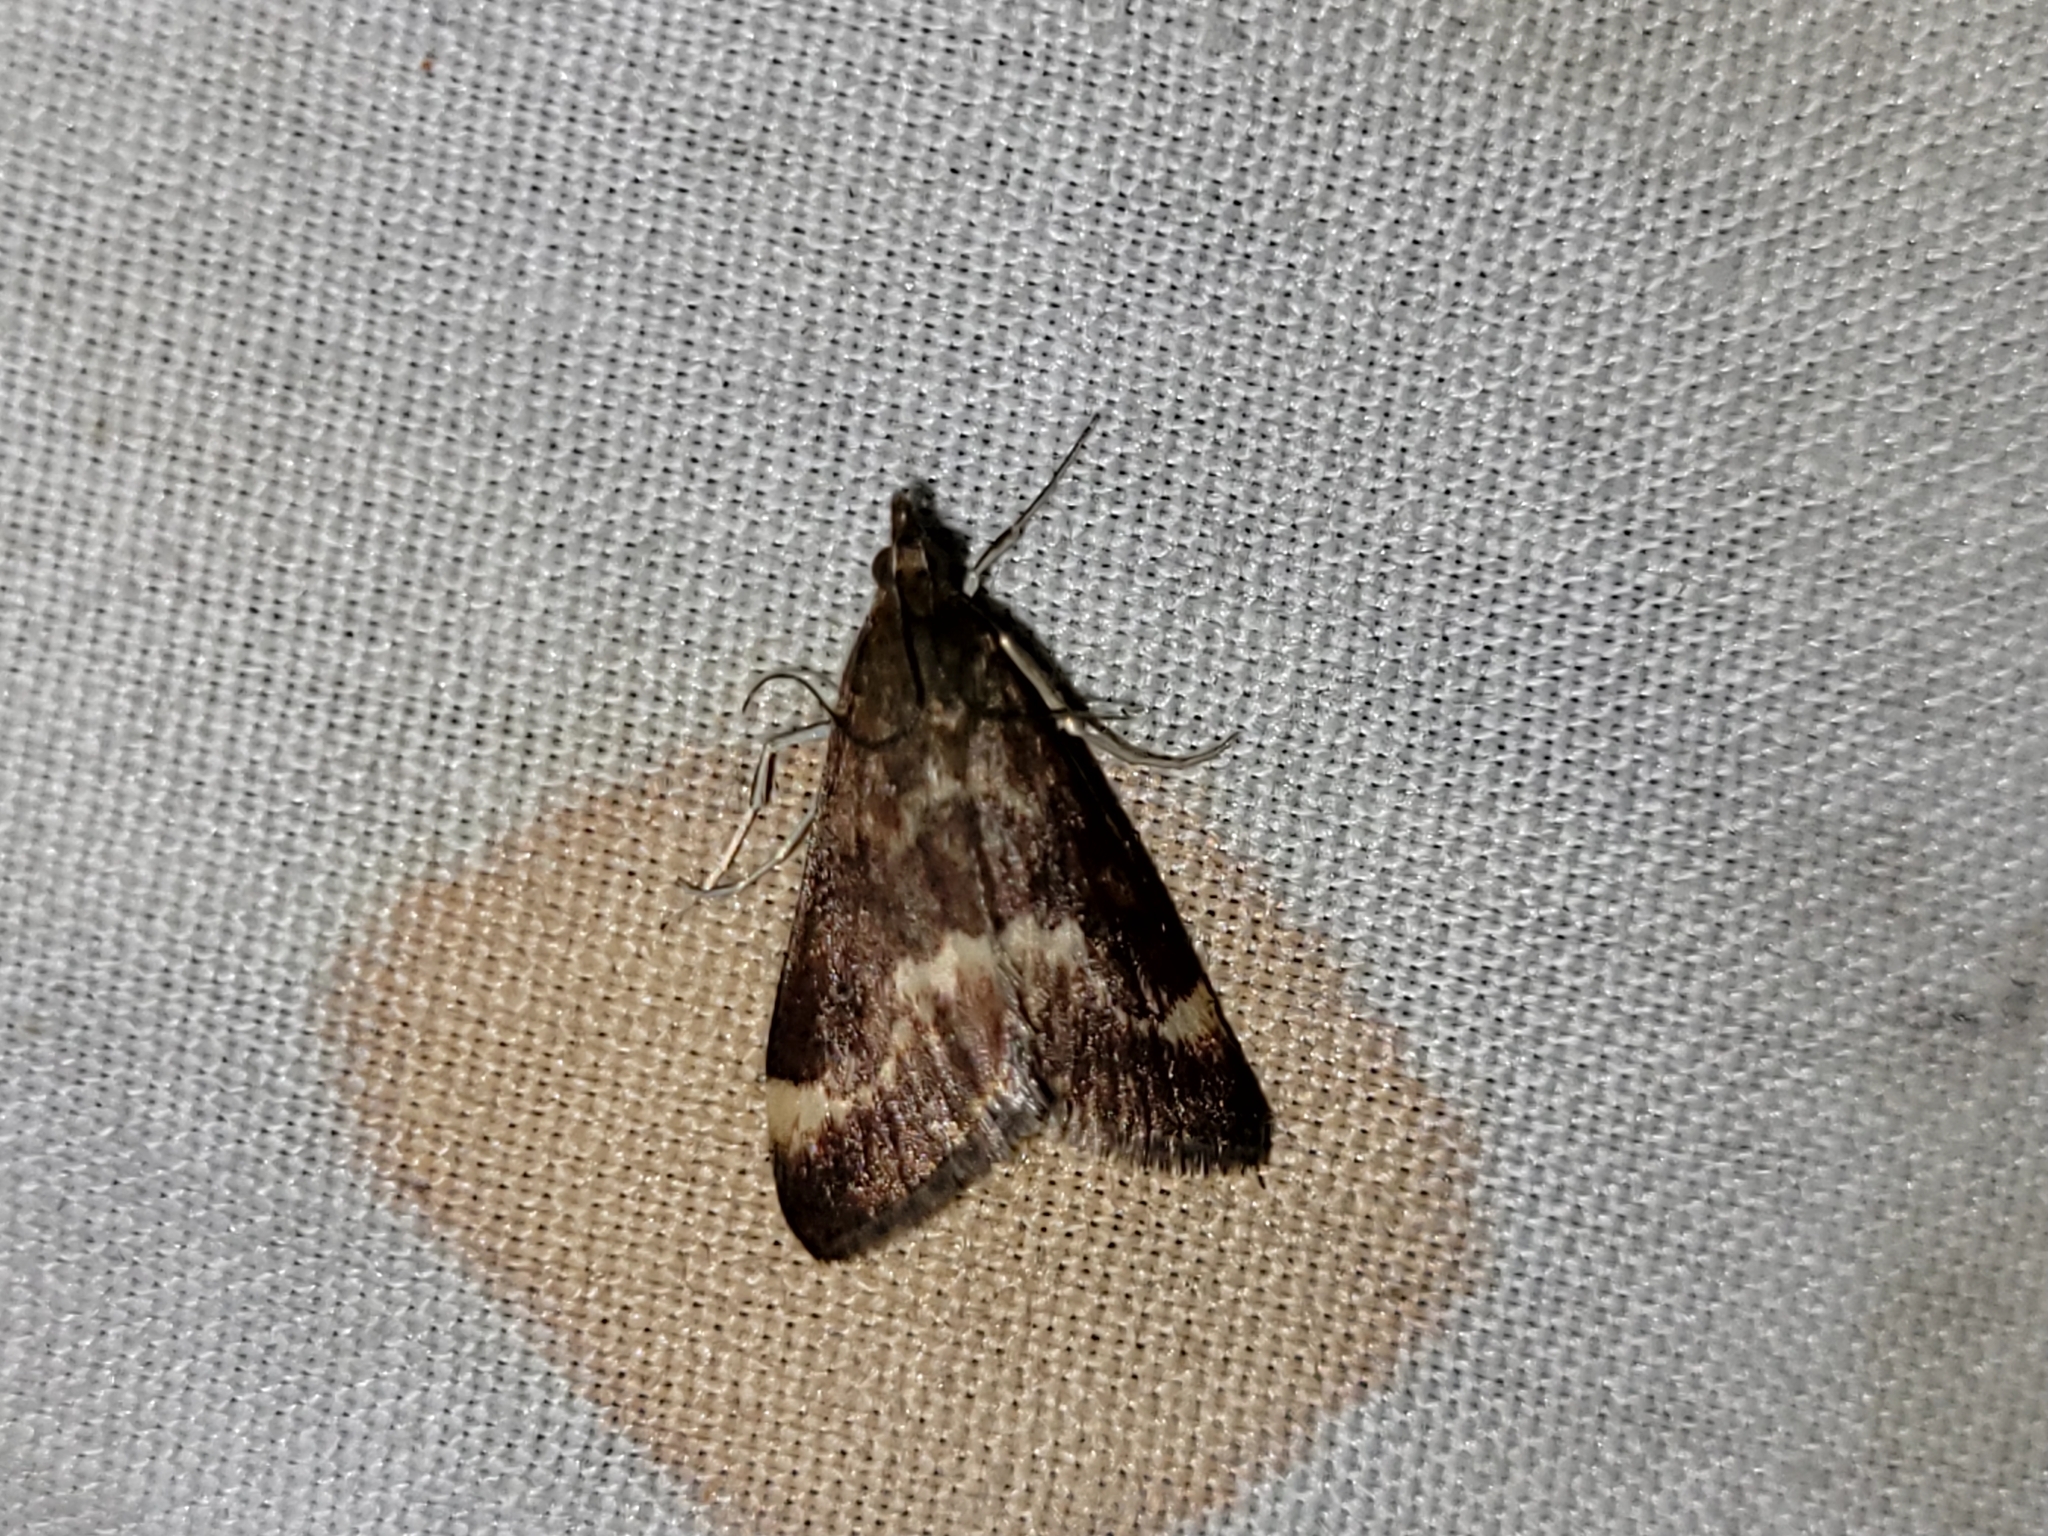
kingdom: Animalia
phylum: Arthropoda
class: Insecta
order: Lepidoptera
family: Crambidae
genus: Pyrausta
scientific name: Pyrausta nicalis
